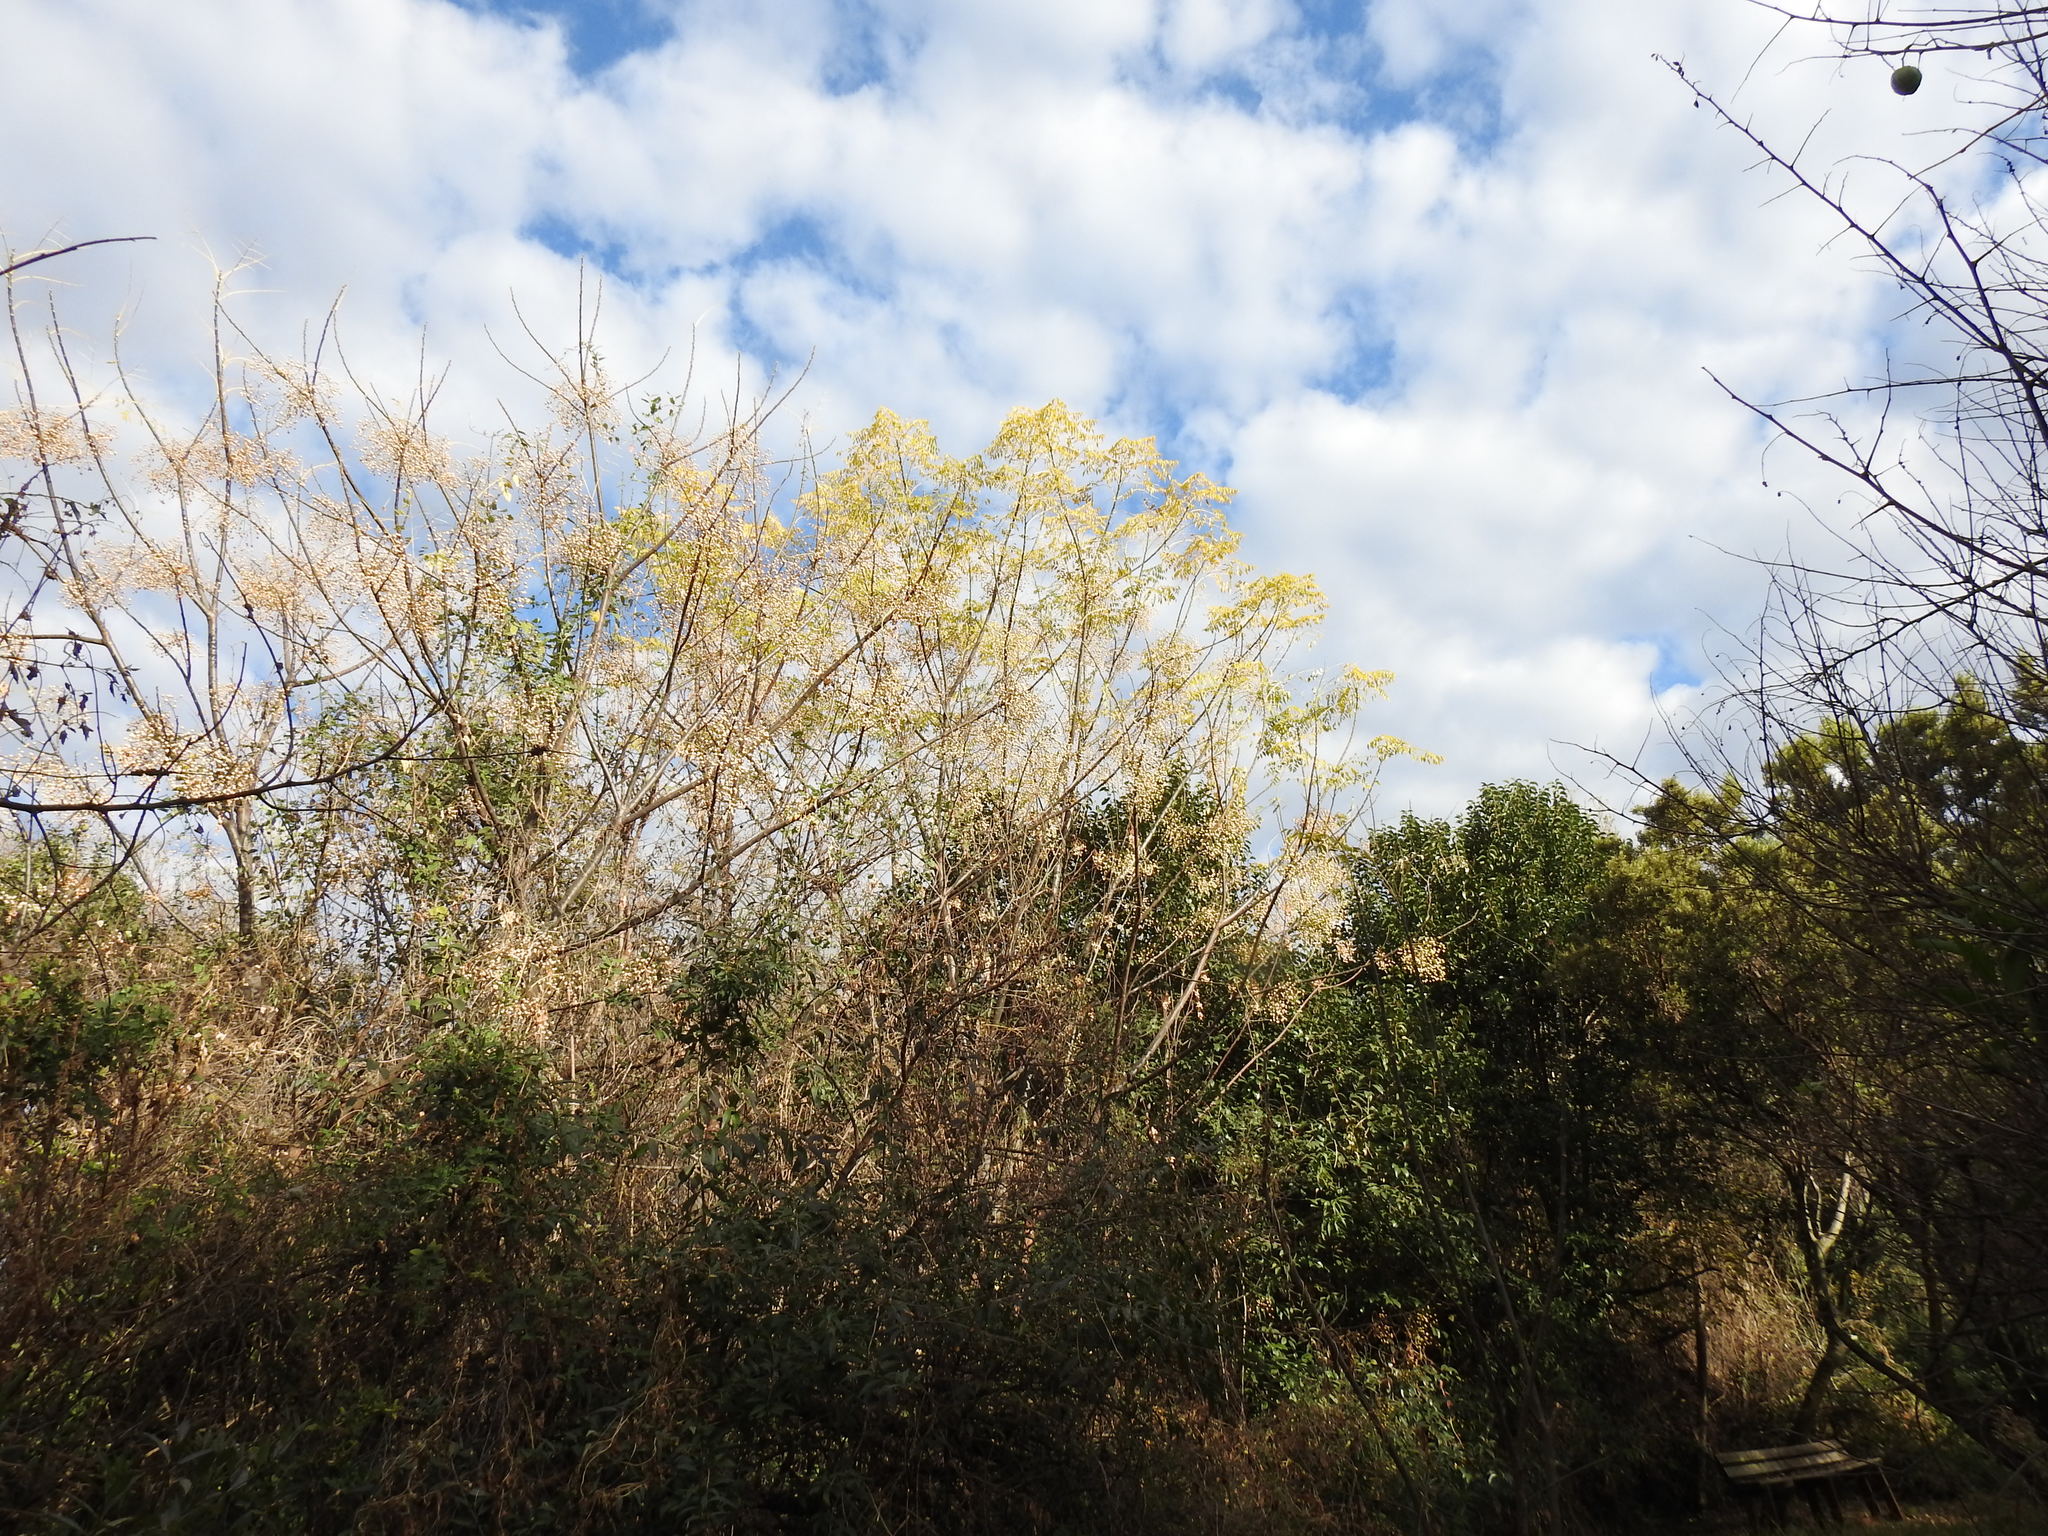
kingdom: Plantae
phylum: Tracheophyta
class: Magnoliopsida
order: Sapindales
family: Meliaceae
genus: Melia
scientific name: Melia azedarach
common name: Chinaberrytree
